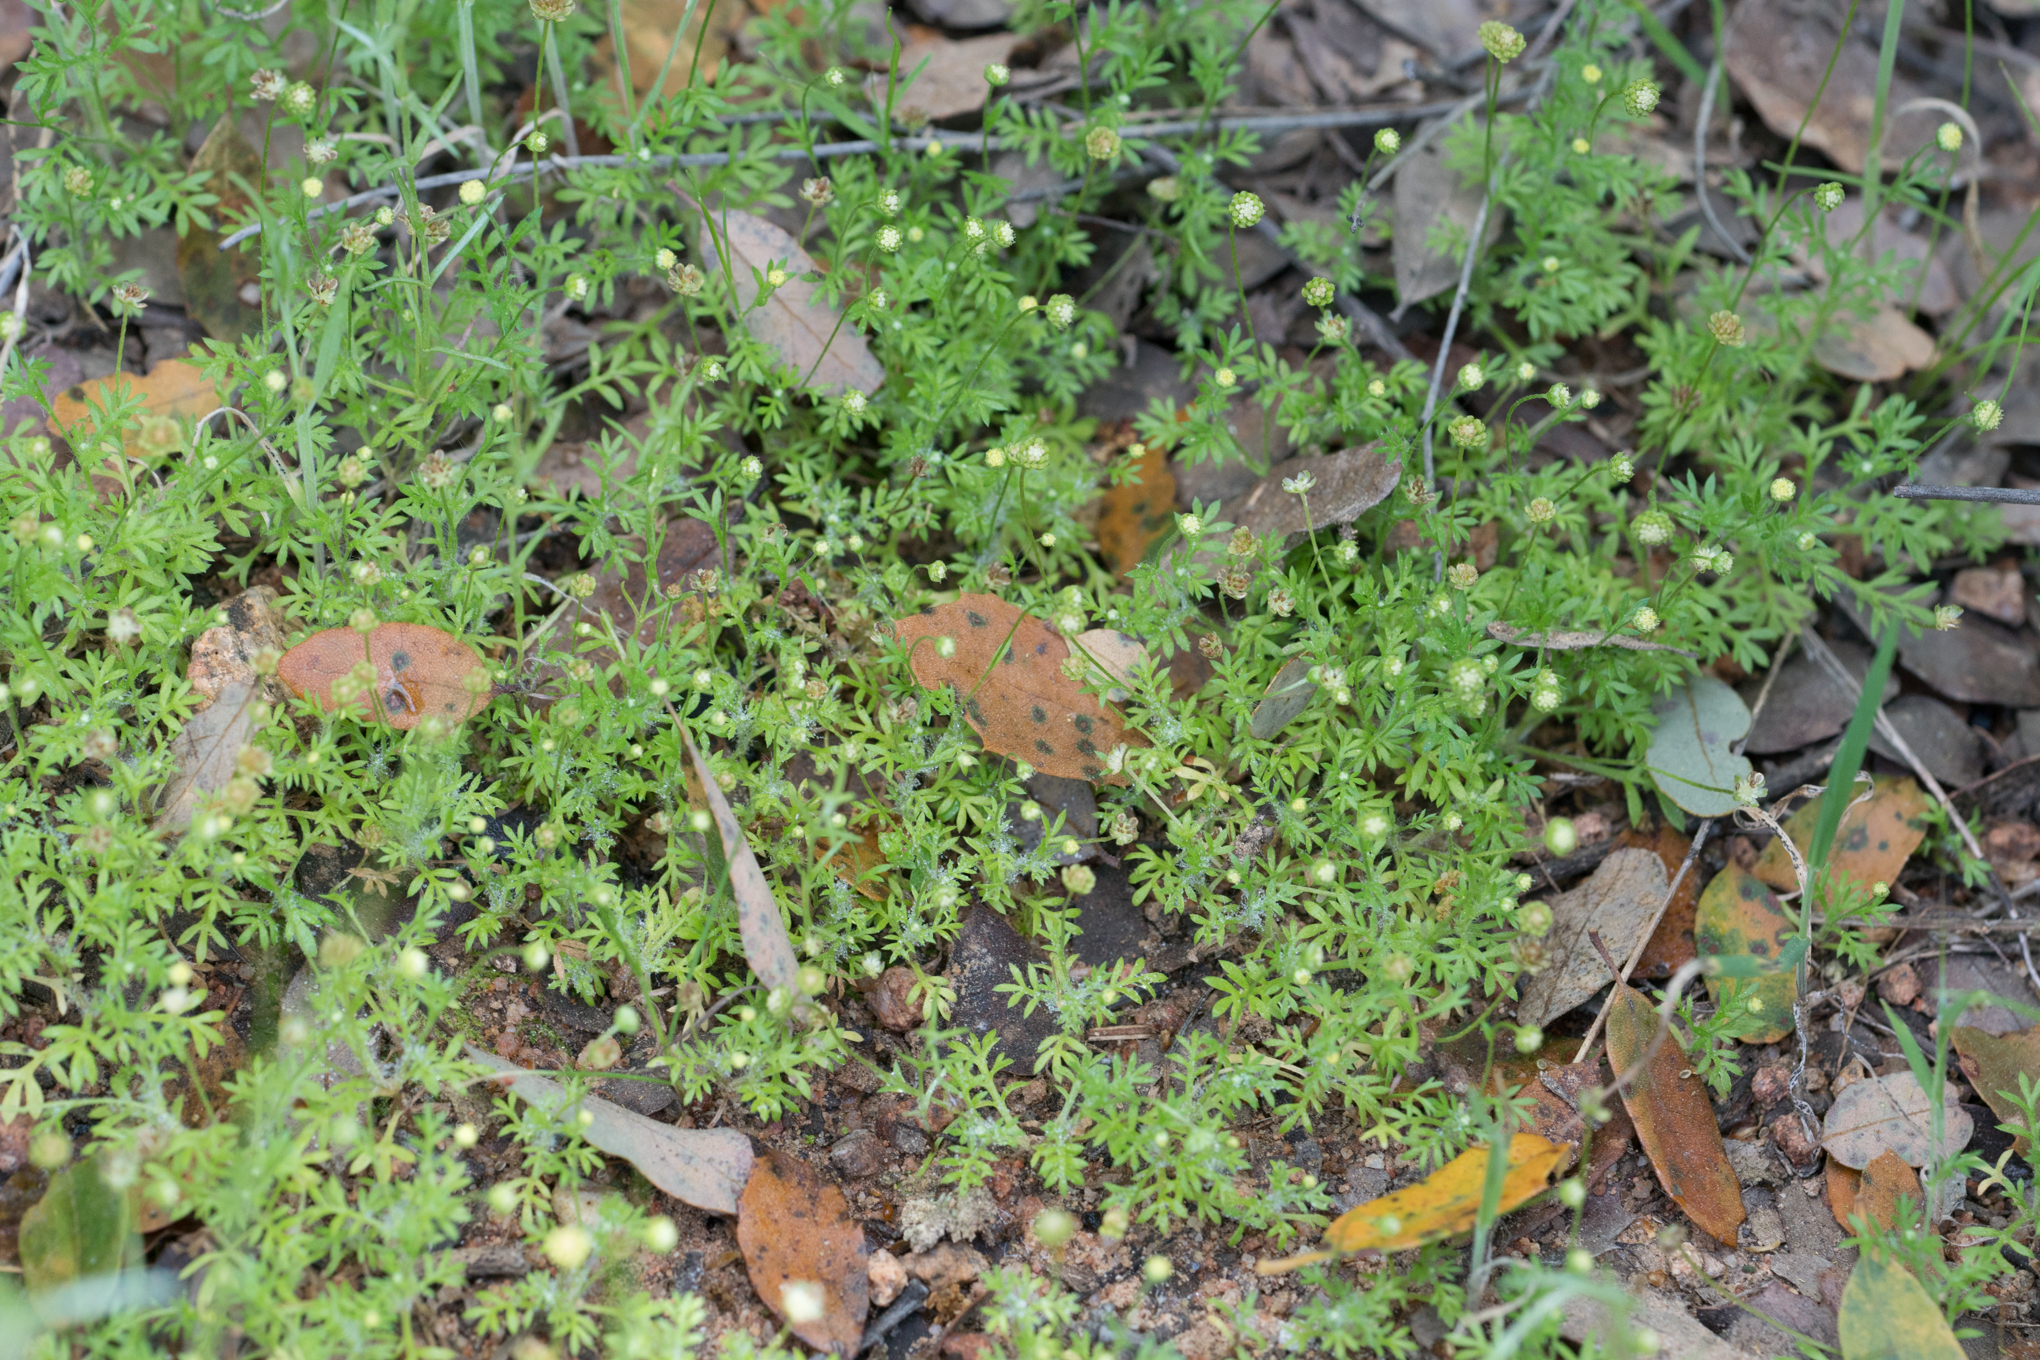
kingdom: Plantae
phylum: Tracheophyta
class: Magnoliopsida
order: Asterales
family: Asteraceae
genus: Cotula
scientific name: Cotula australis
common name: Australian waterbuttons
